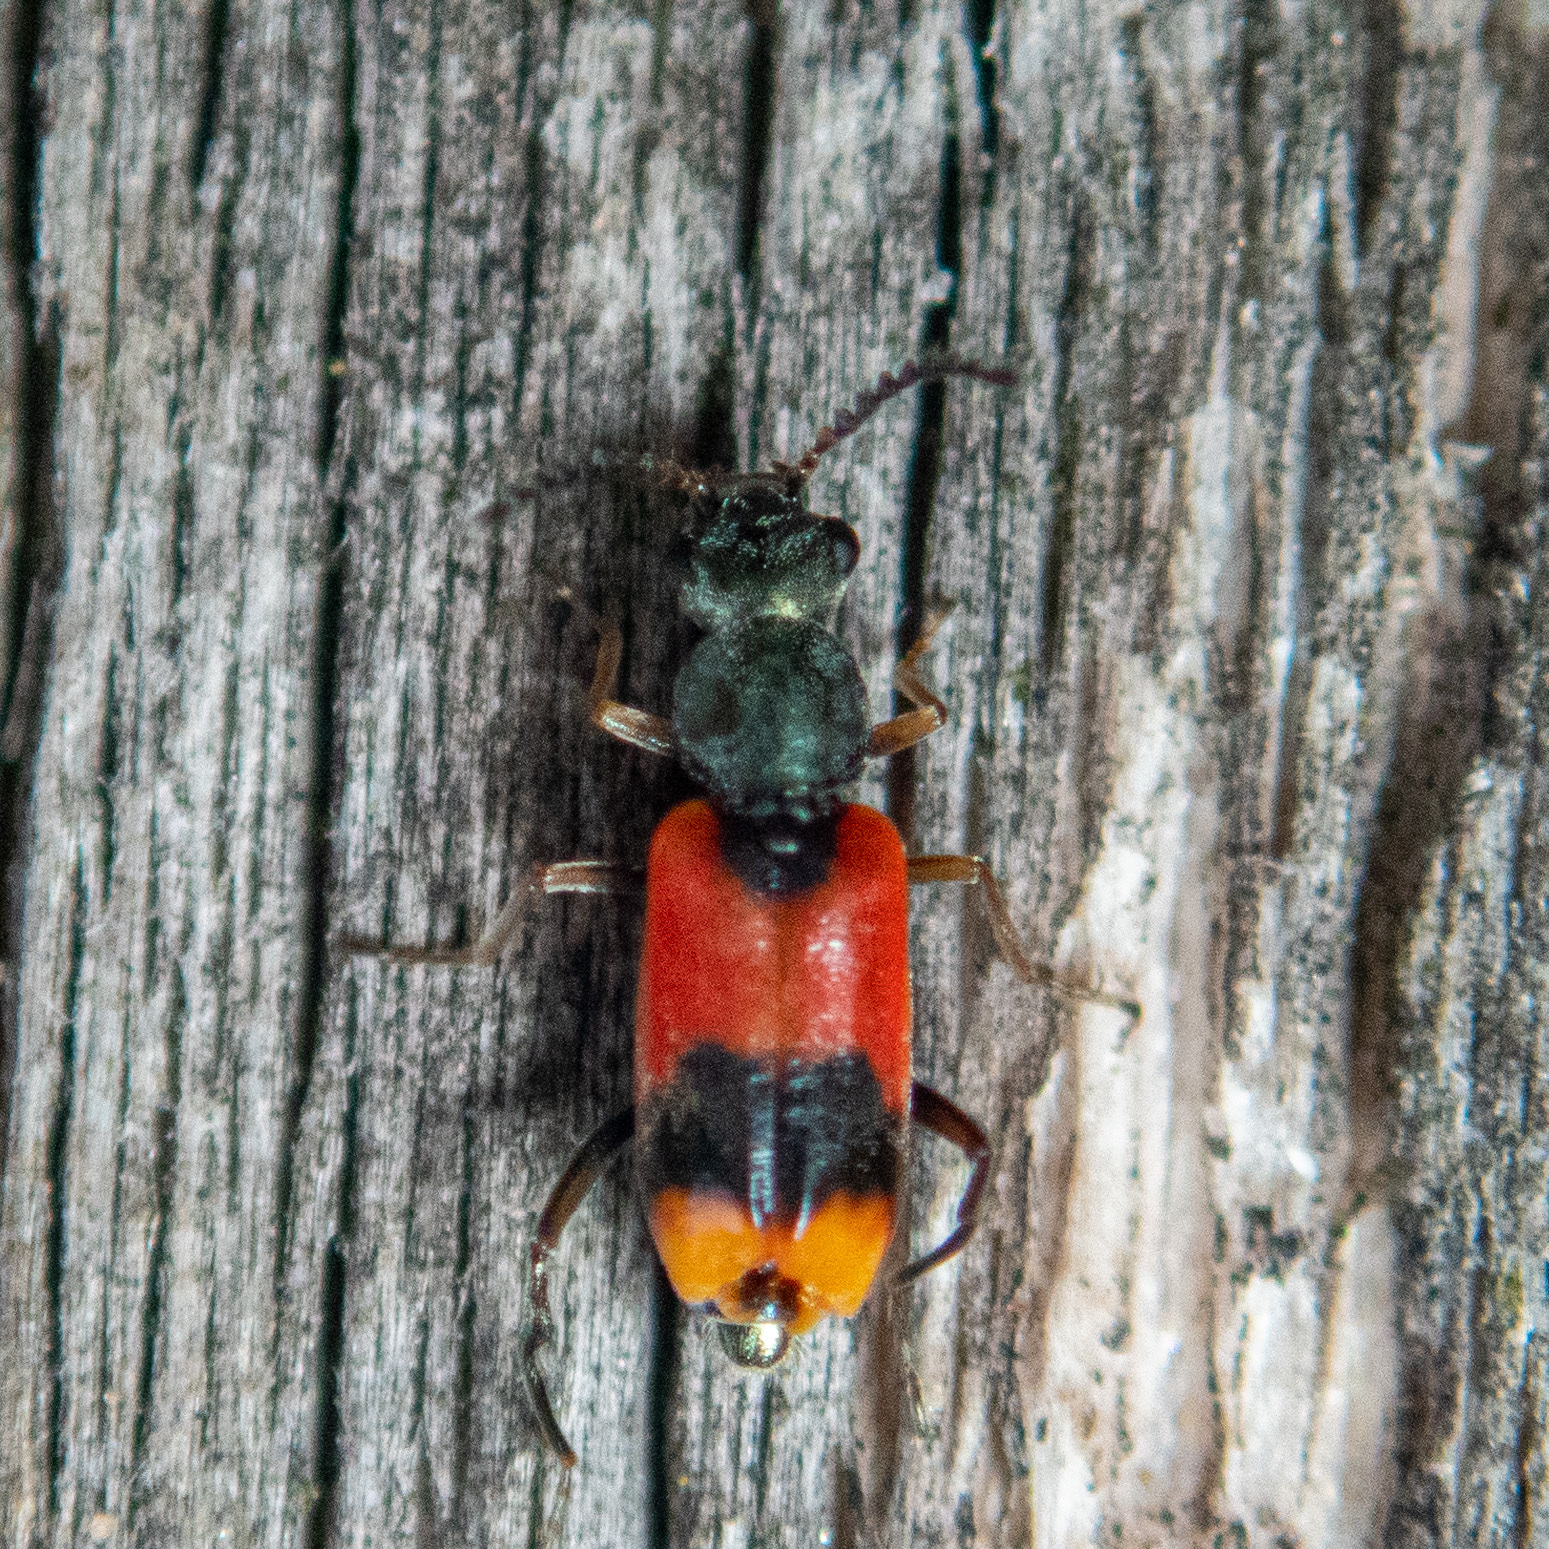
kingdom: Animalia
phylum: Arthropoda
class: Insecta
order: Coleoptera
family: Melyridae
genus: Anthocomus
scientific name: Anthocomus equestris
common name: Black-banded soft-winged flower beetle
